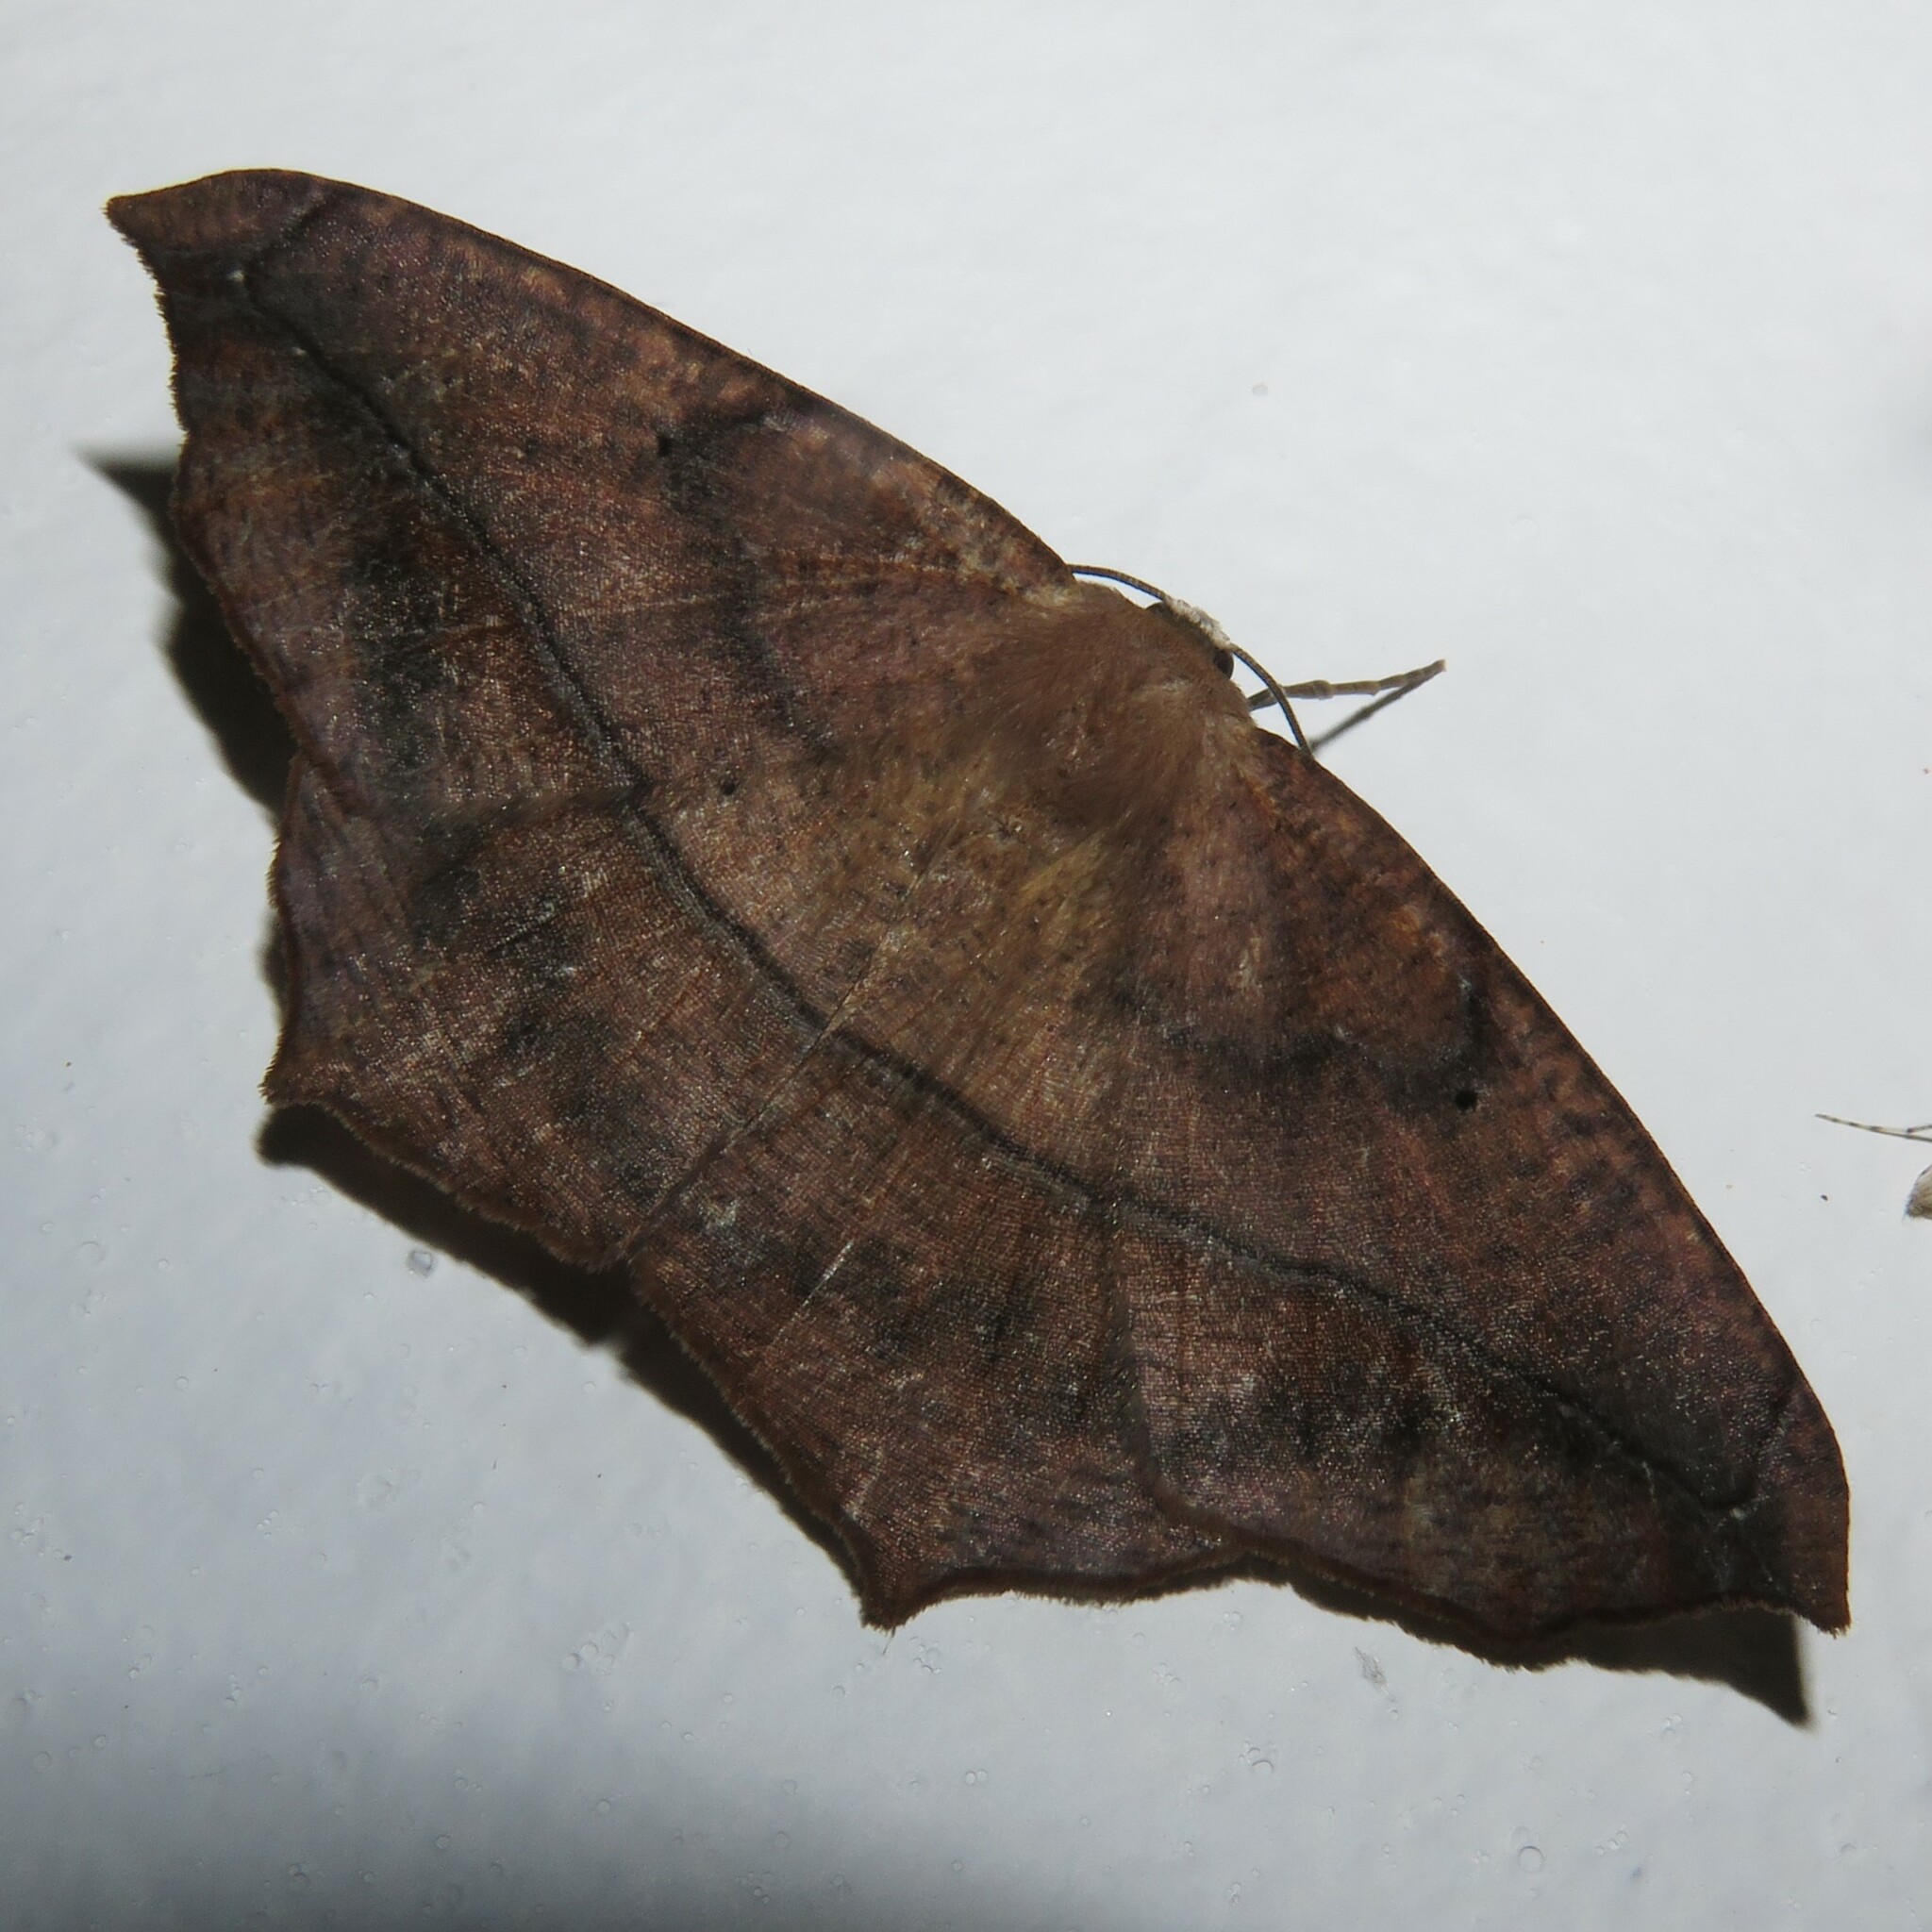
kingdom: Animalia
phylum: Arthropoda
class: Insecta
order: Lepidoptera
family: Geometridae
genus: Prochoerodes
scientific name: Prochoerodes lineola
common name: Large maple spanworm
